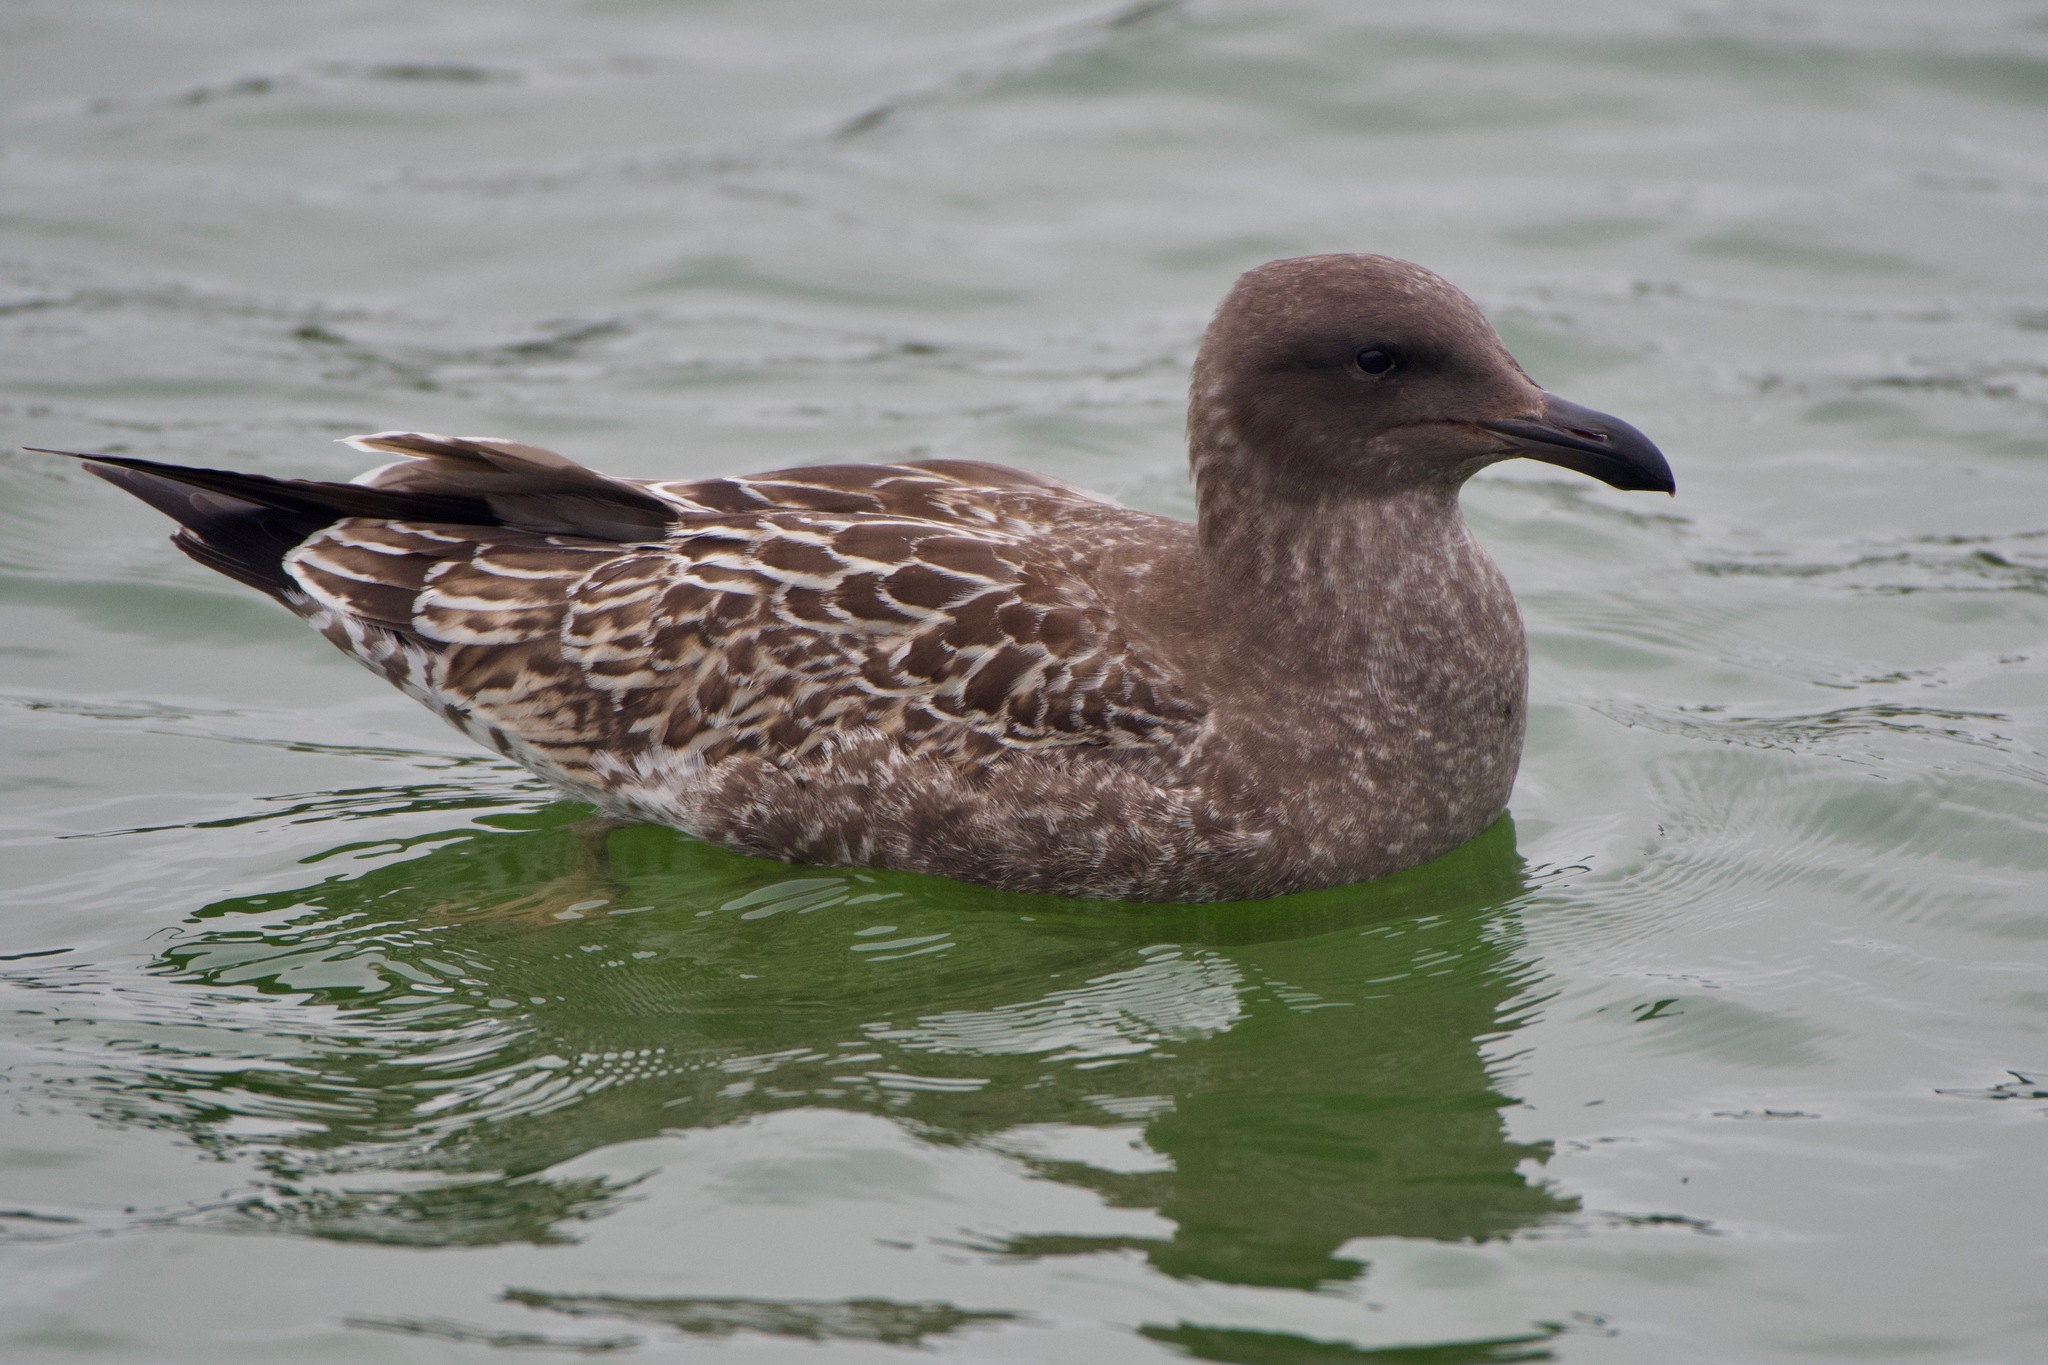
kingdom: Animalia
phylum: Chordata
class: Aves
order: Charadriiformes
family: Laridae
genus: Larus
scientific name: Larus occidentalis
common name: Western gull
